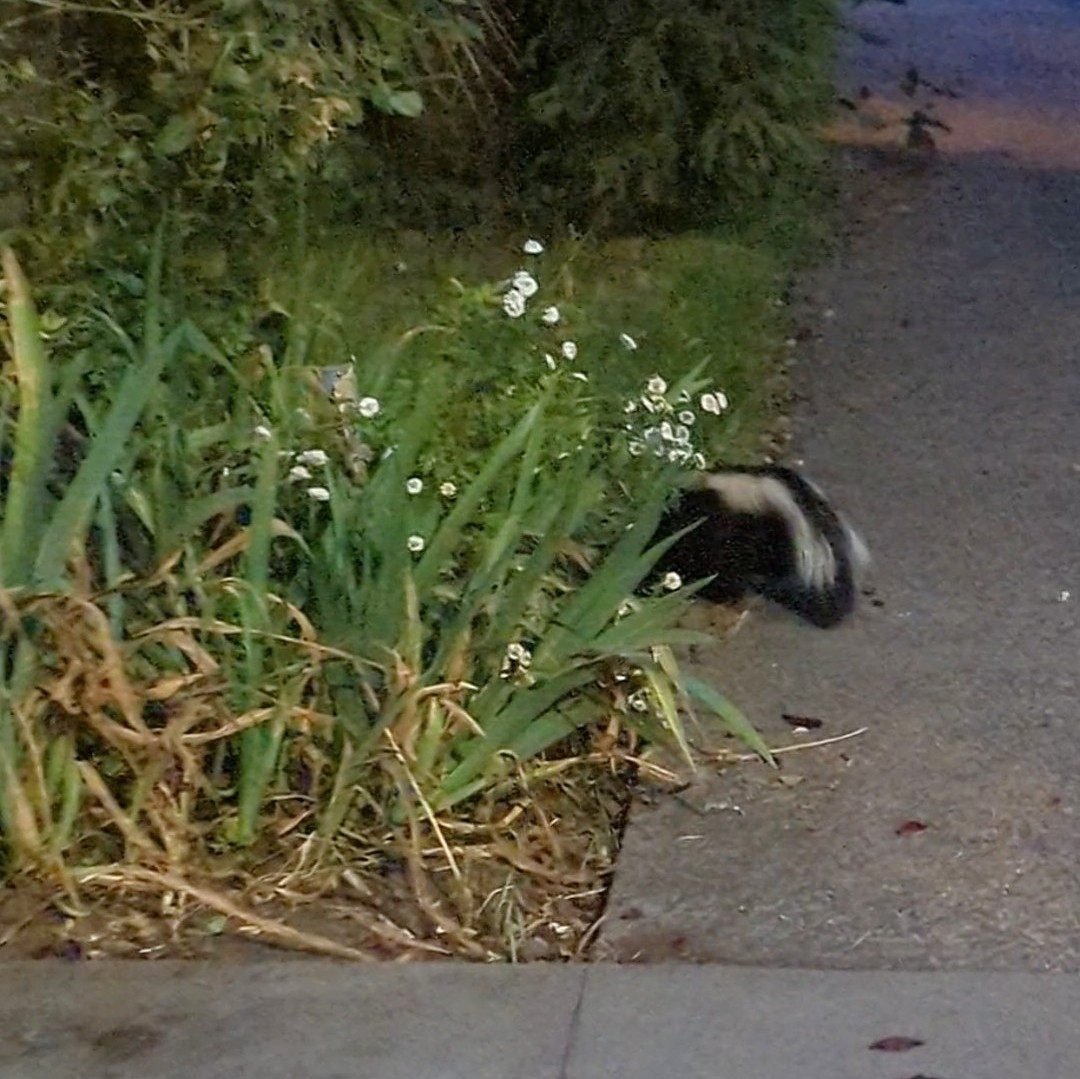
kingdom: Animalia
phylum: Chordata
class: Mammalia
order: Carnivora
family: Mephitidae
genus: Mephitis
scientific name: Mephitis mephitis
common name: Striped skunk
